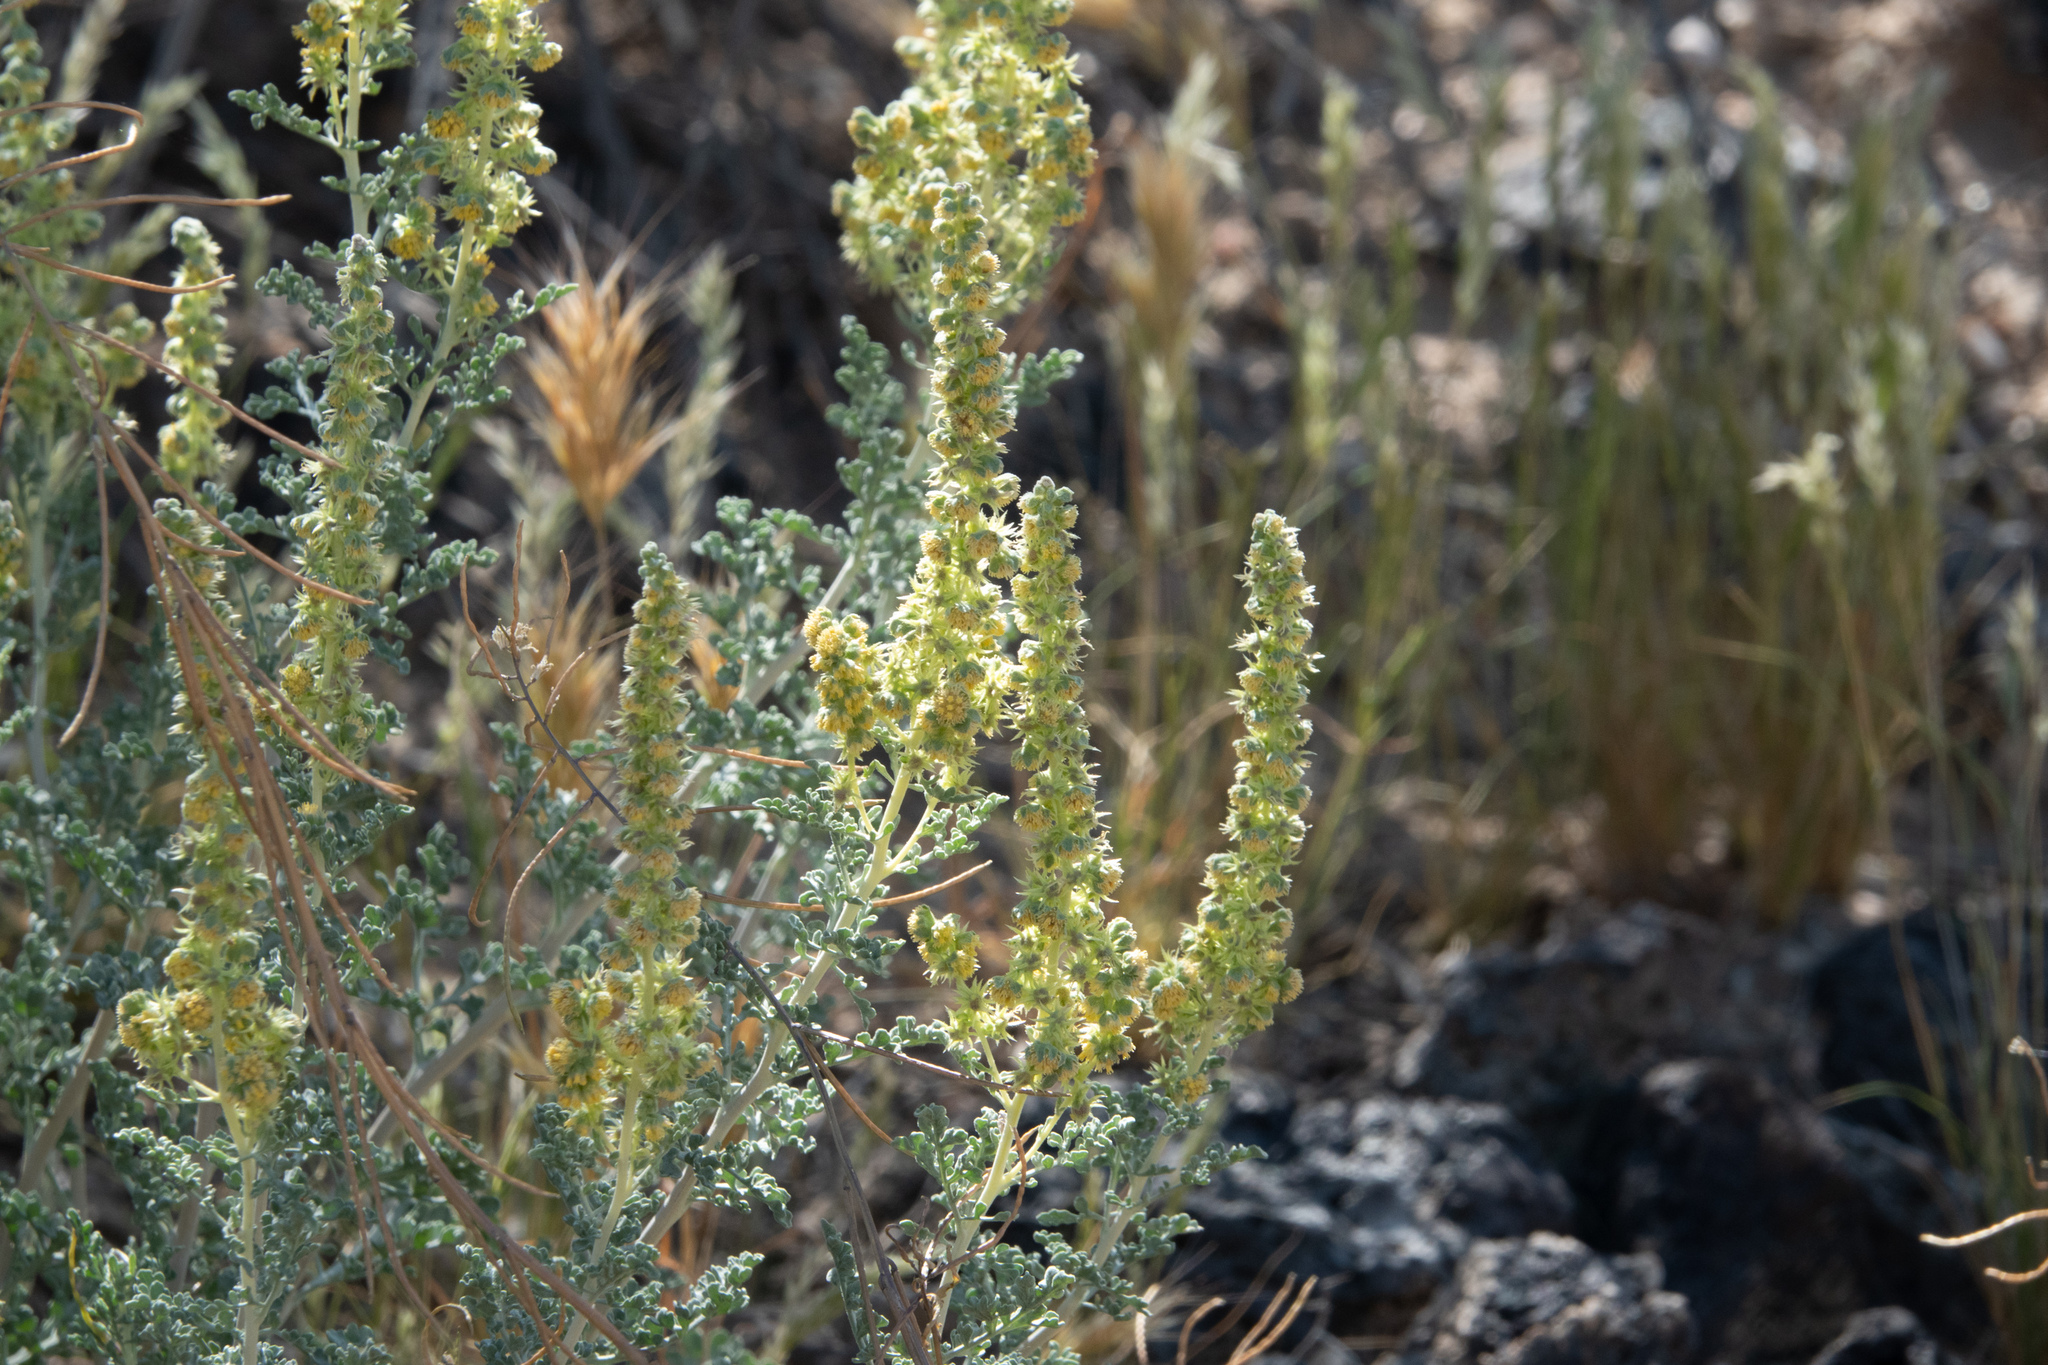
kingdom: Plantae
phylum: Tracheophyta
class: Magnoliopsida
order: Asterales
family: Asteraceae
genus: Ambrosia
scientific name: Ambrosia dumosa
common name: Bur-sage
